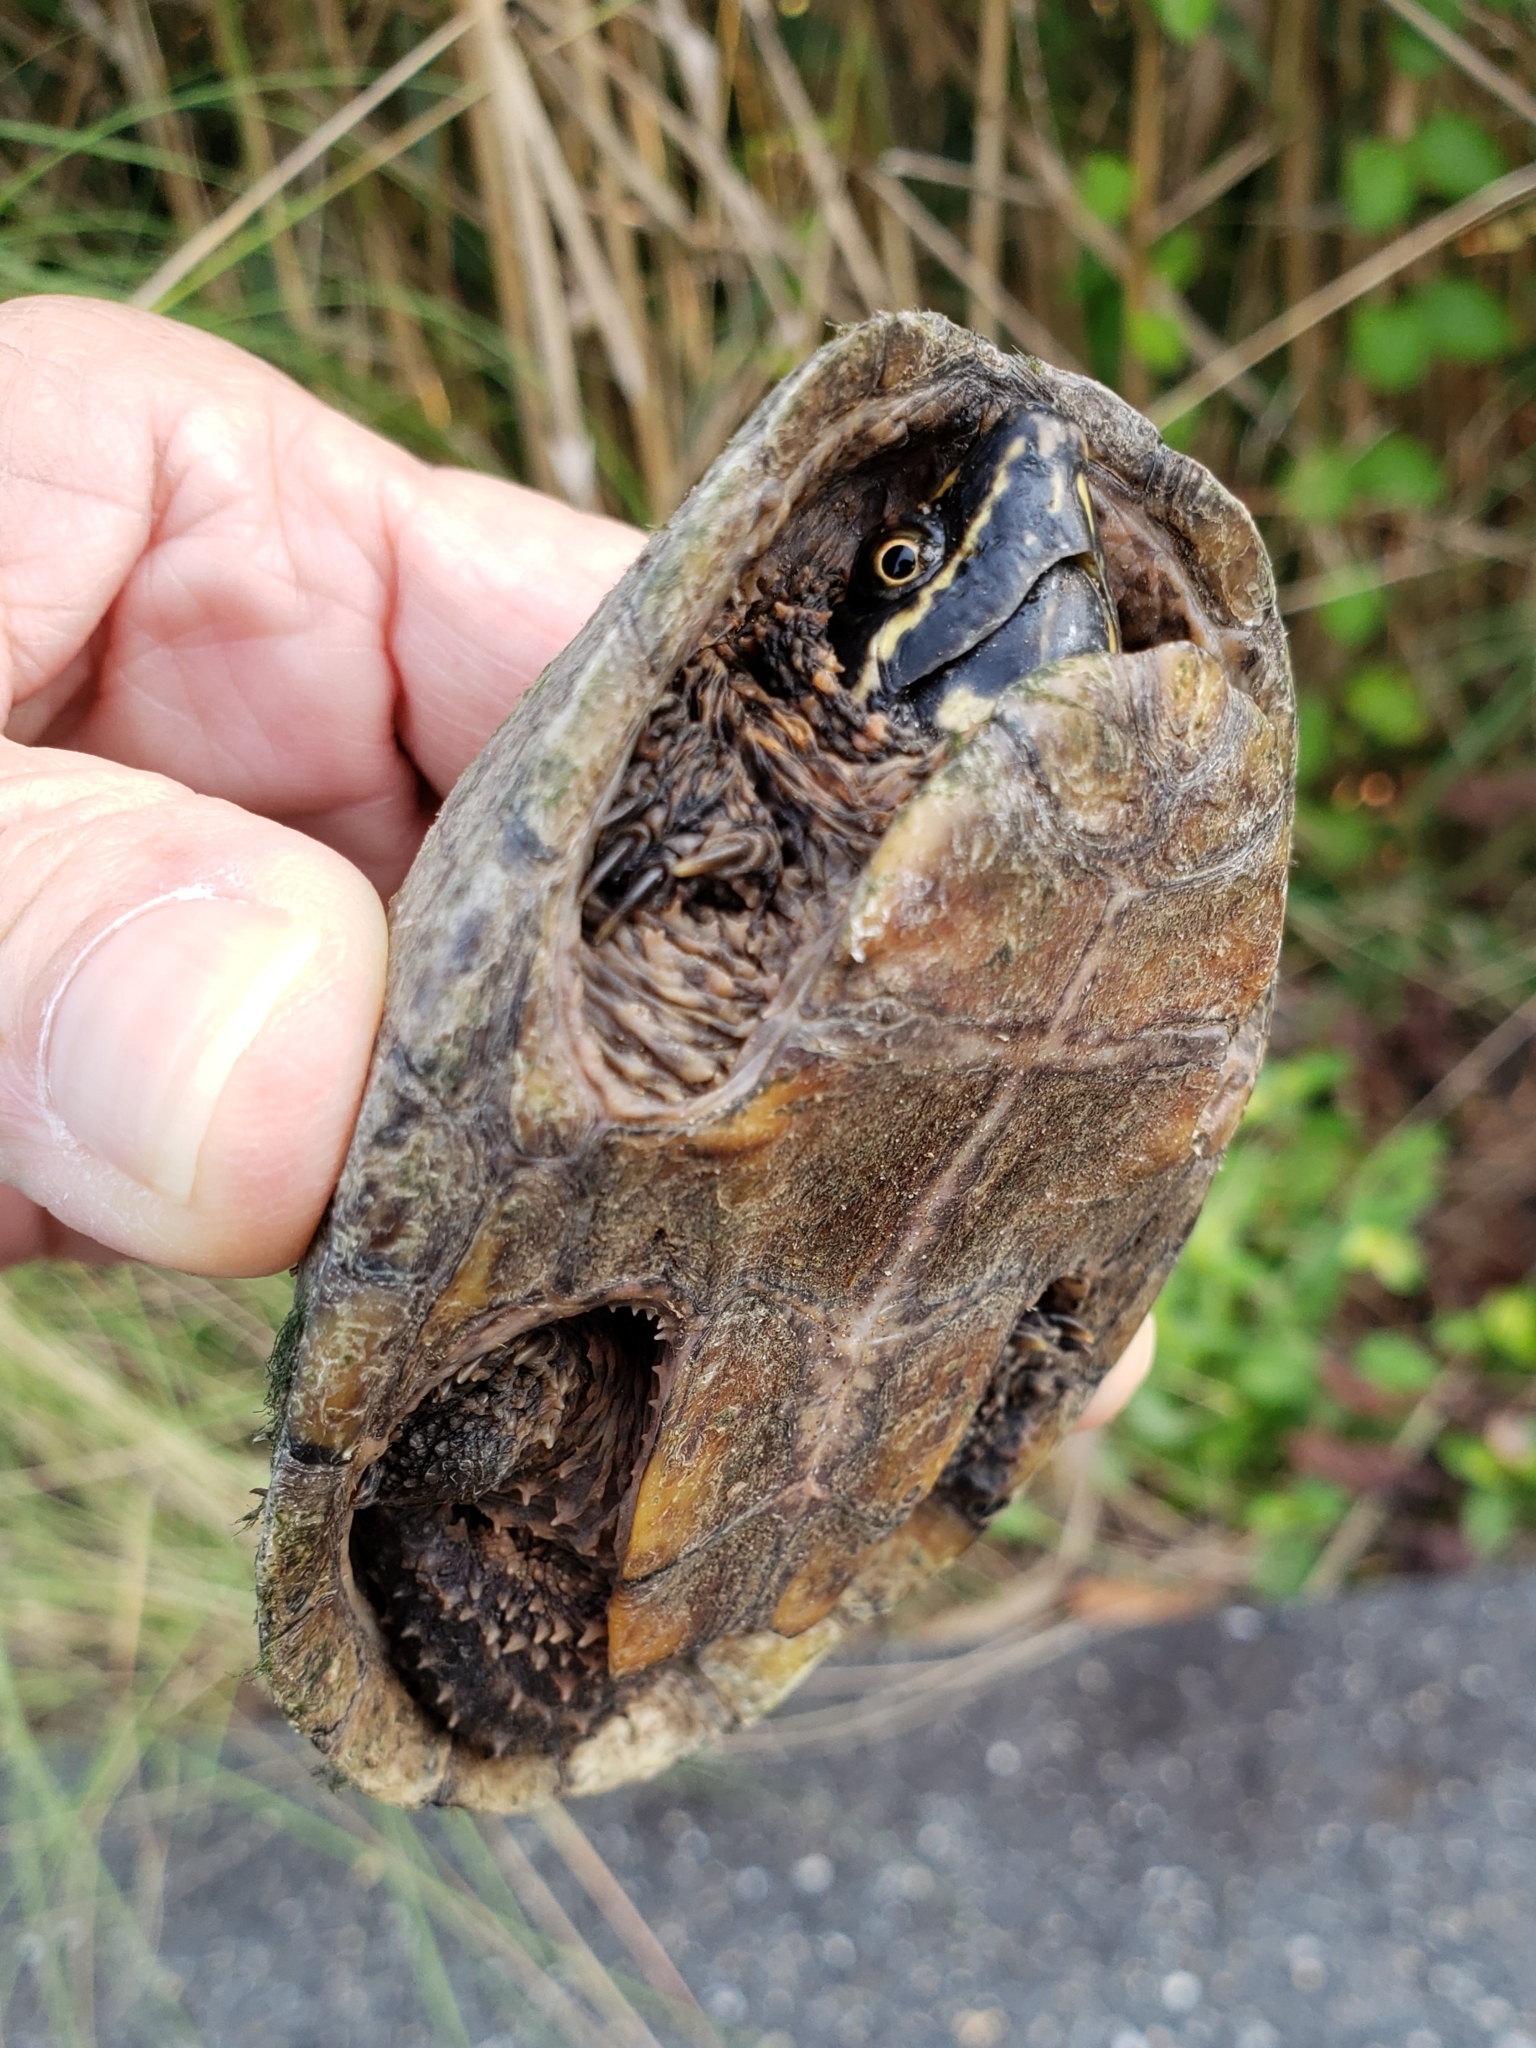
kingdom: Animalia
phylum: Chordata
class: Testudines
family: Kinosternidae
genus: Sternotherus
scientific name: Sternotherus odoratus
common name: Common musk turtle
